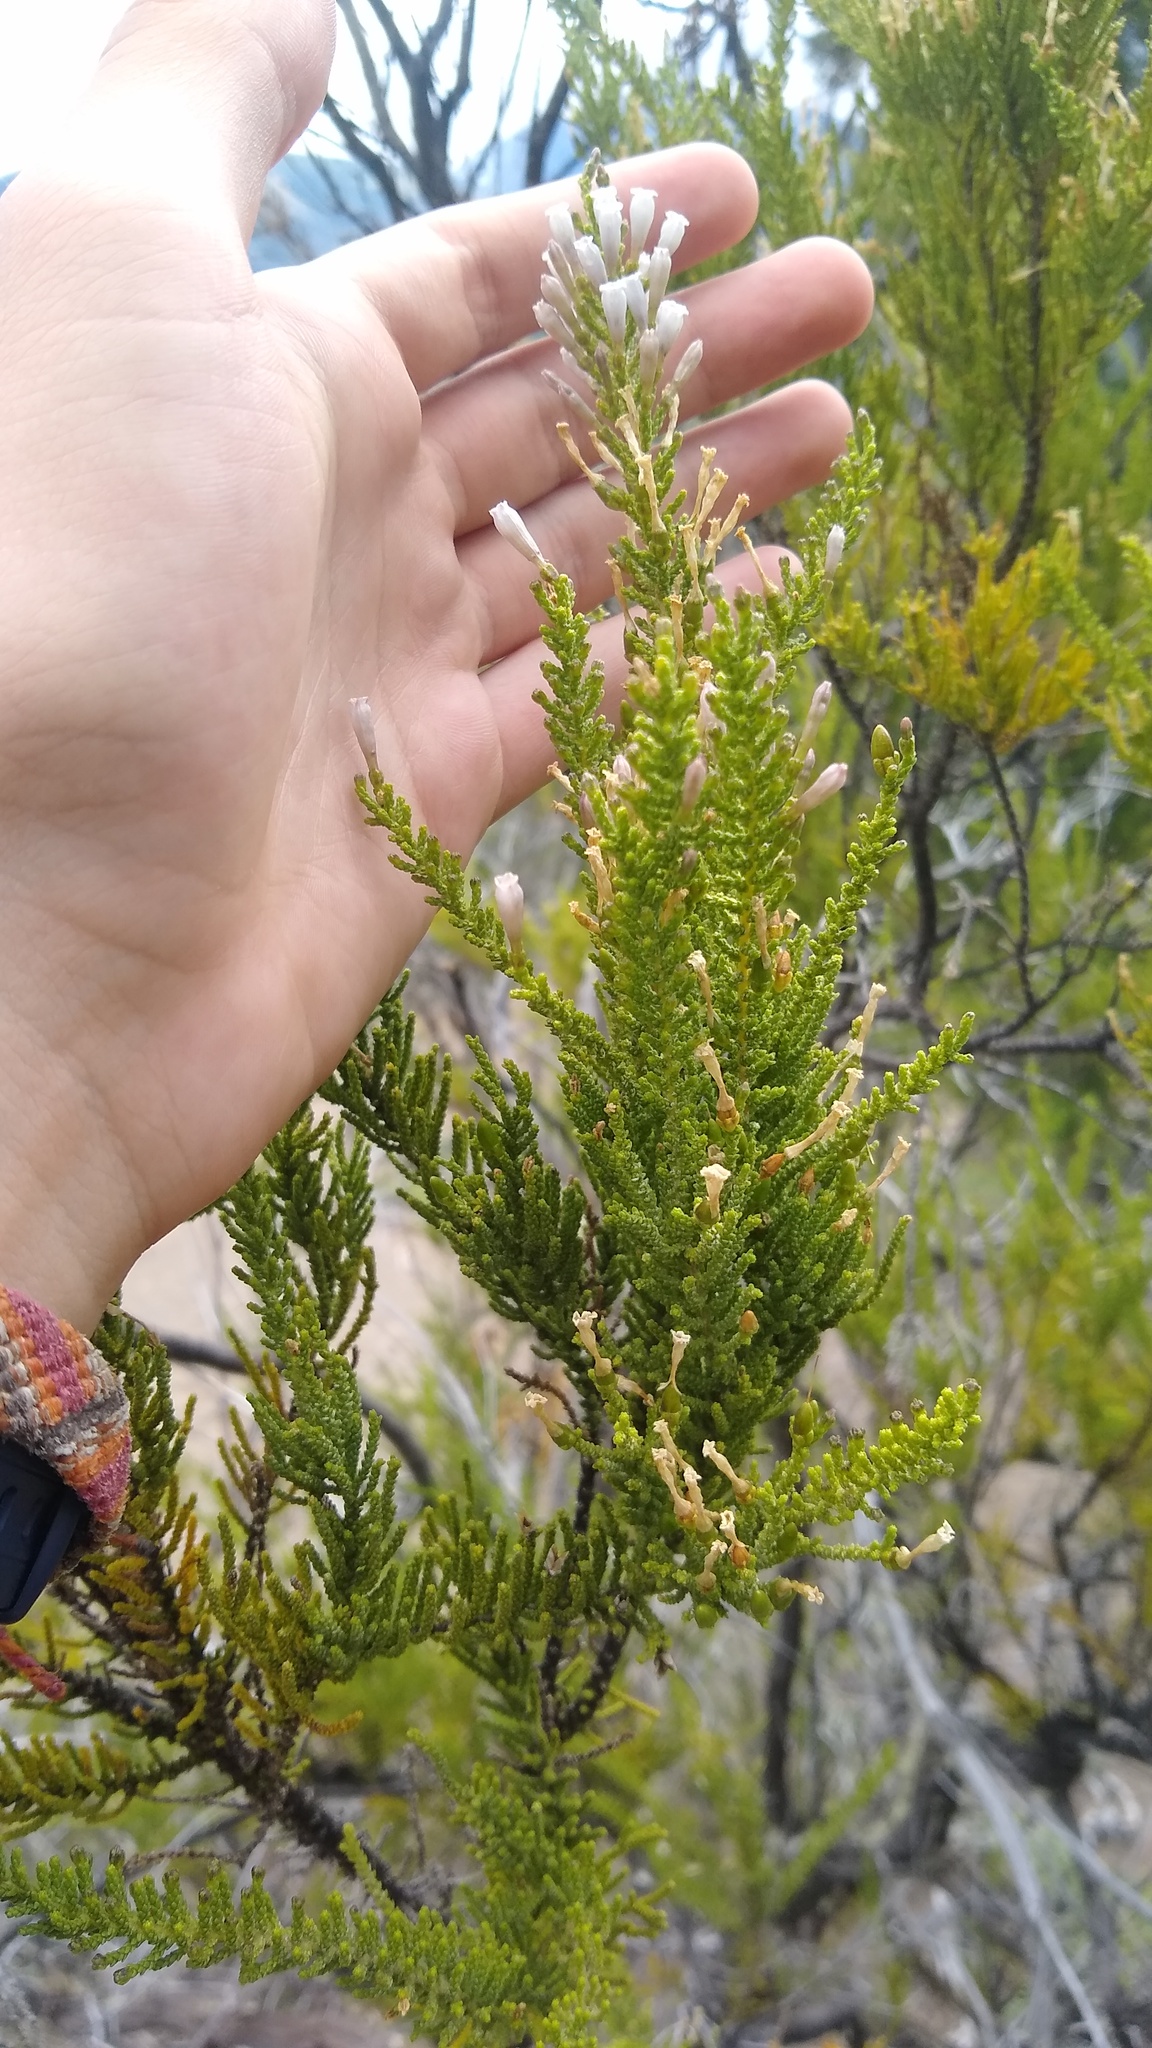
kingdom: Plantae
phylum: Tracheophyta
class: Magnoliopsida
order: Solanales
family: Solanaceae
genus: Fabiana
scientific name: Fabiana imbricata
